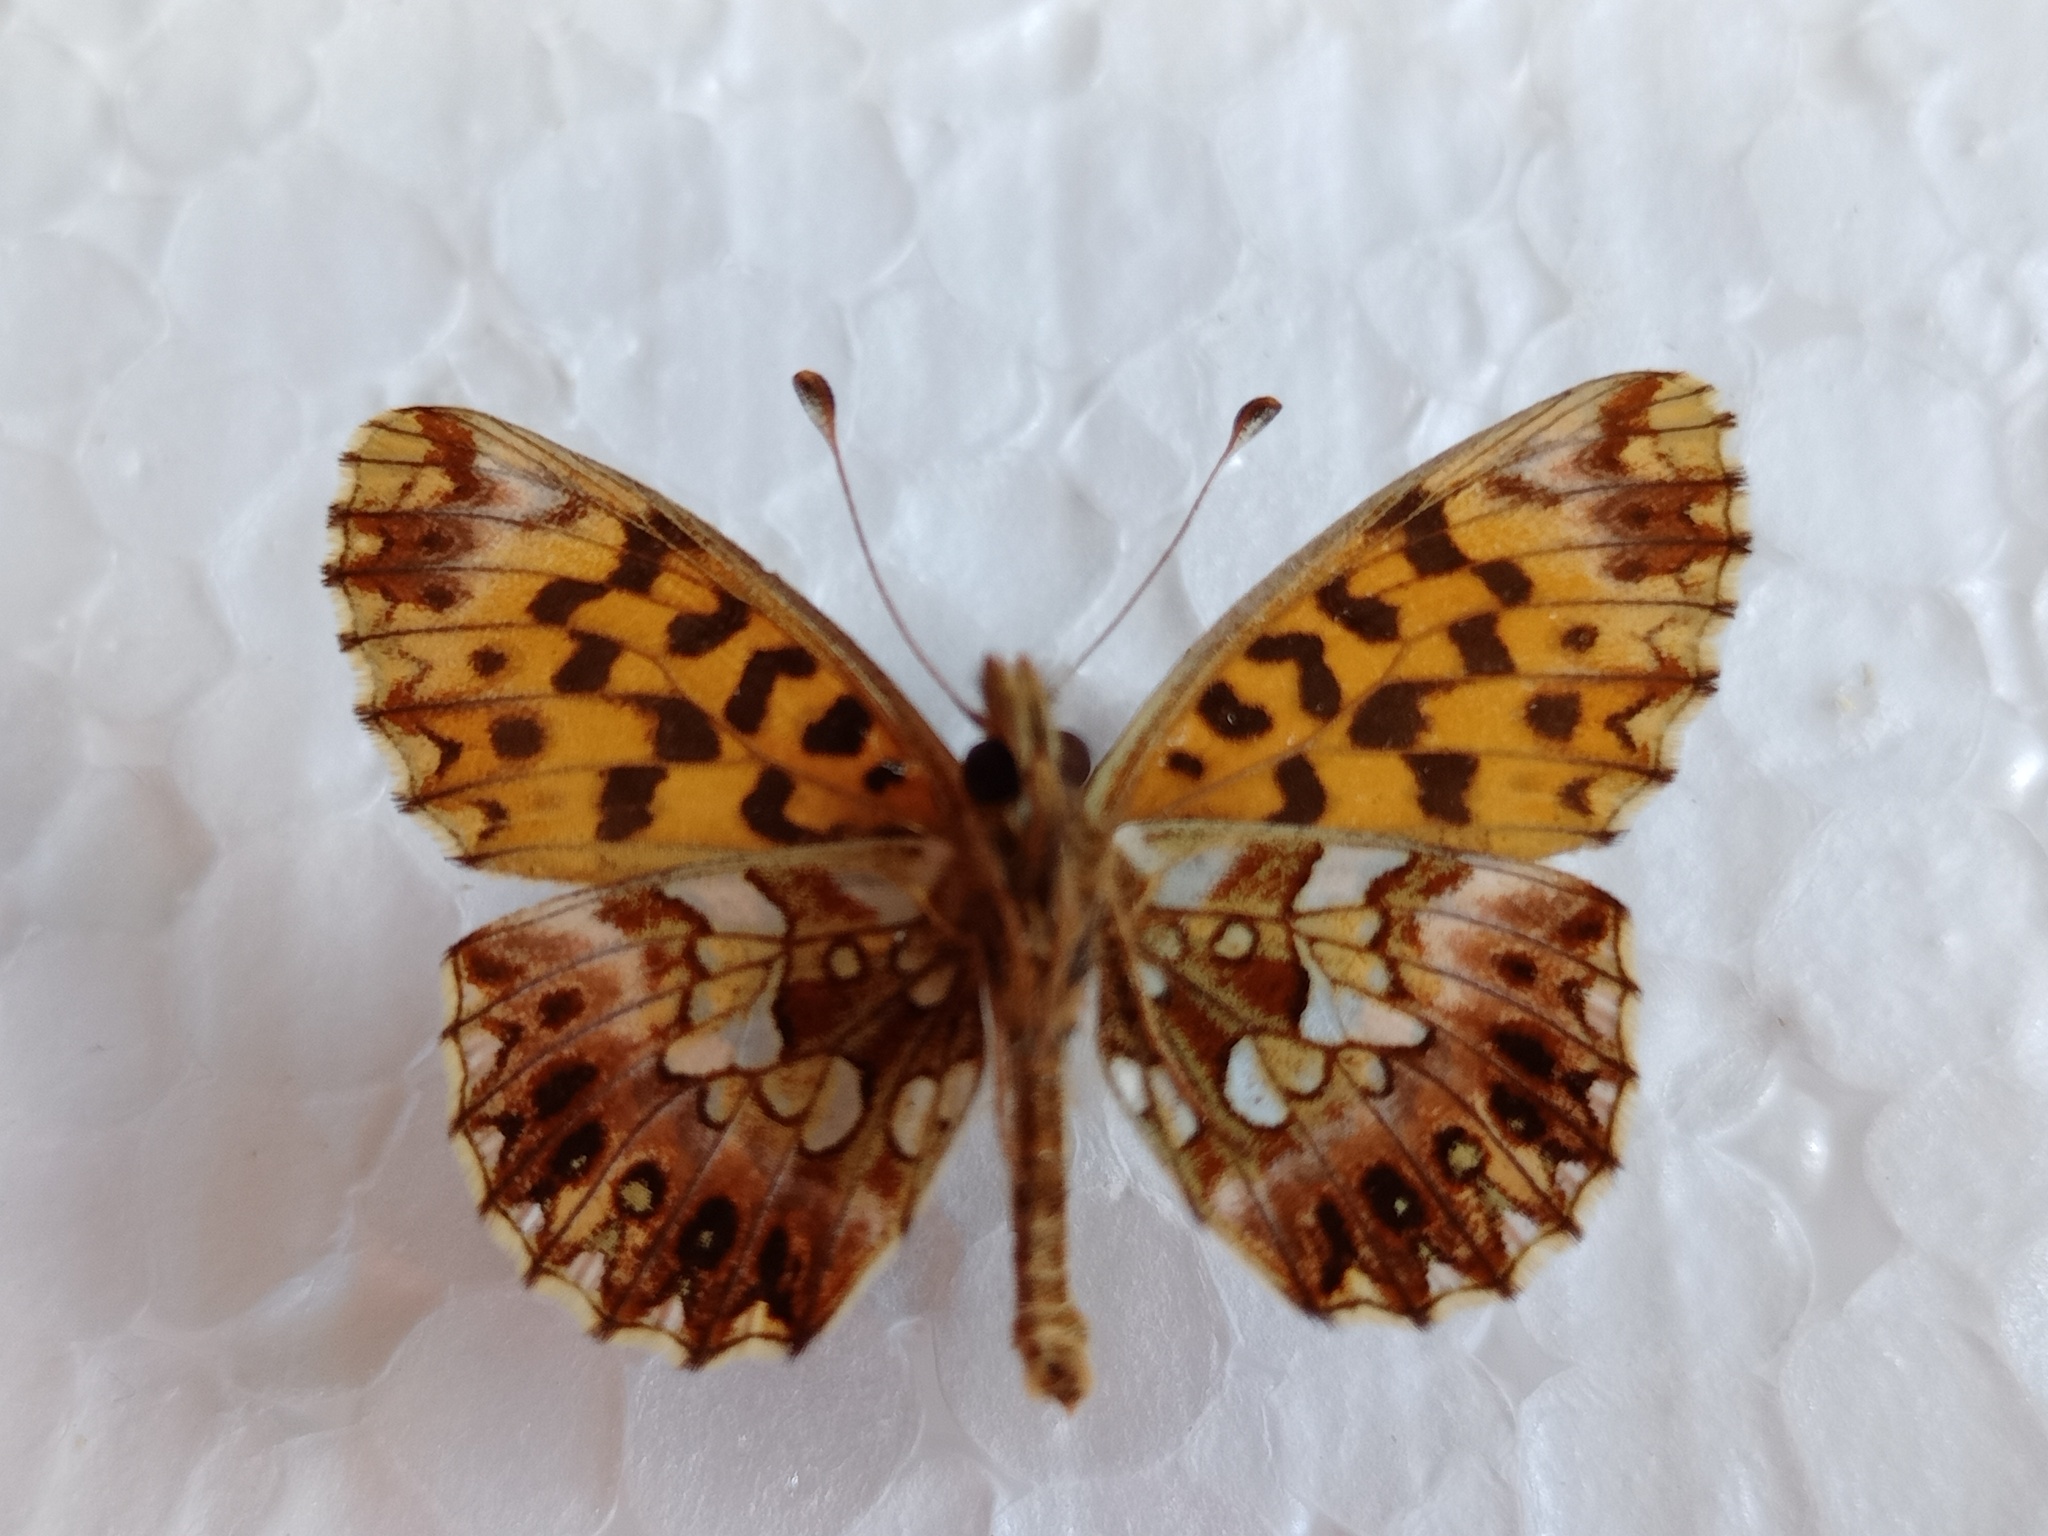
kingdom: Animalia
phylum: Arthropoda
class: Insecta
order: Lepidoptera
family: Nymphalidae
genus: Boloria
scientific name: Boloria dia
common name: Weaver's fritillary
